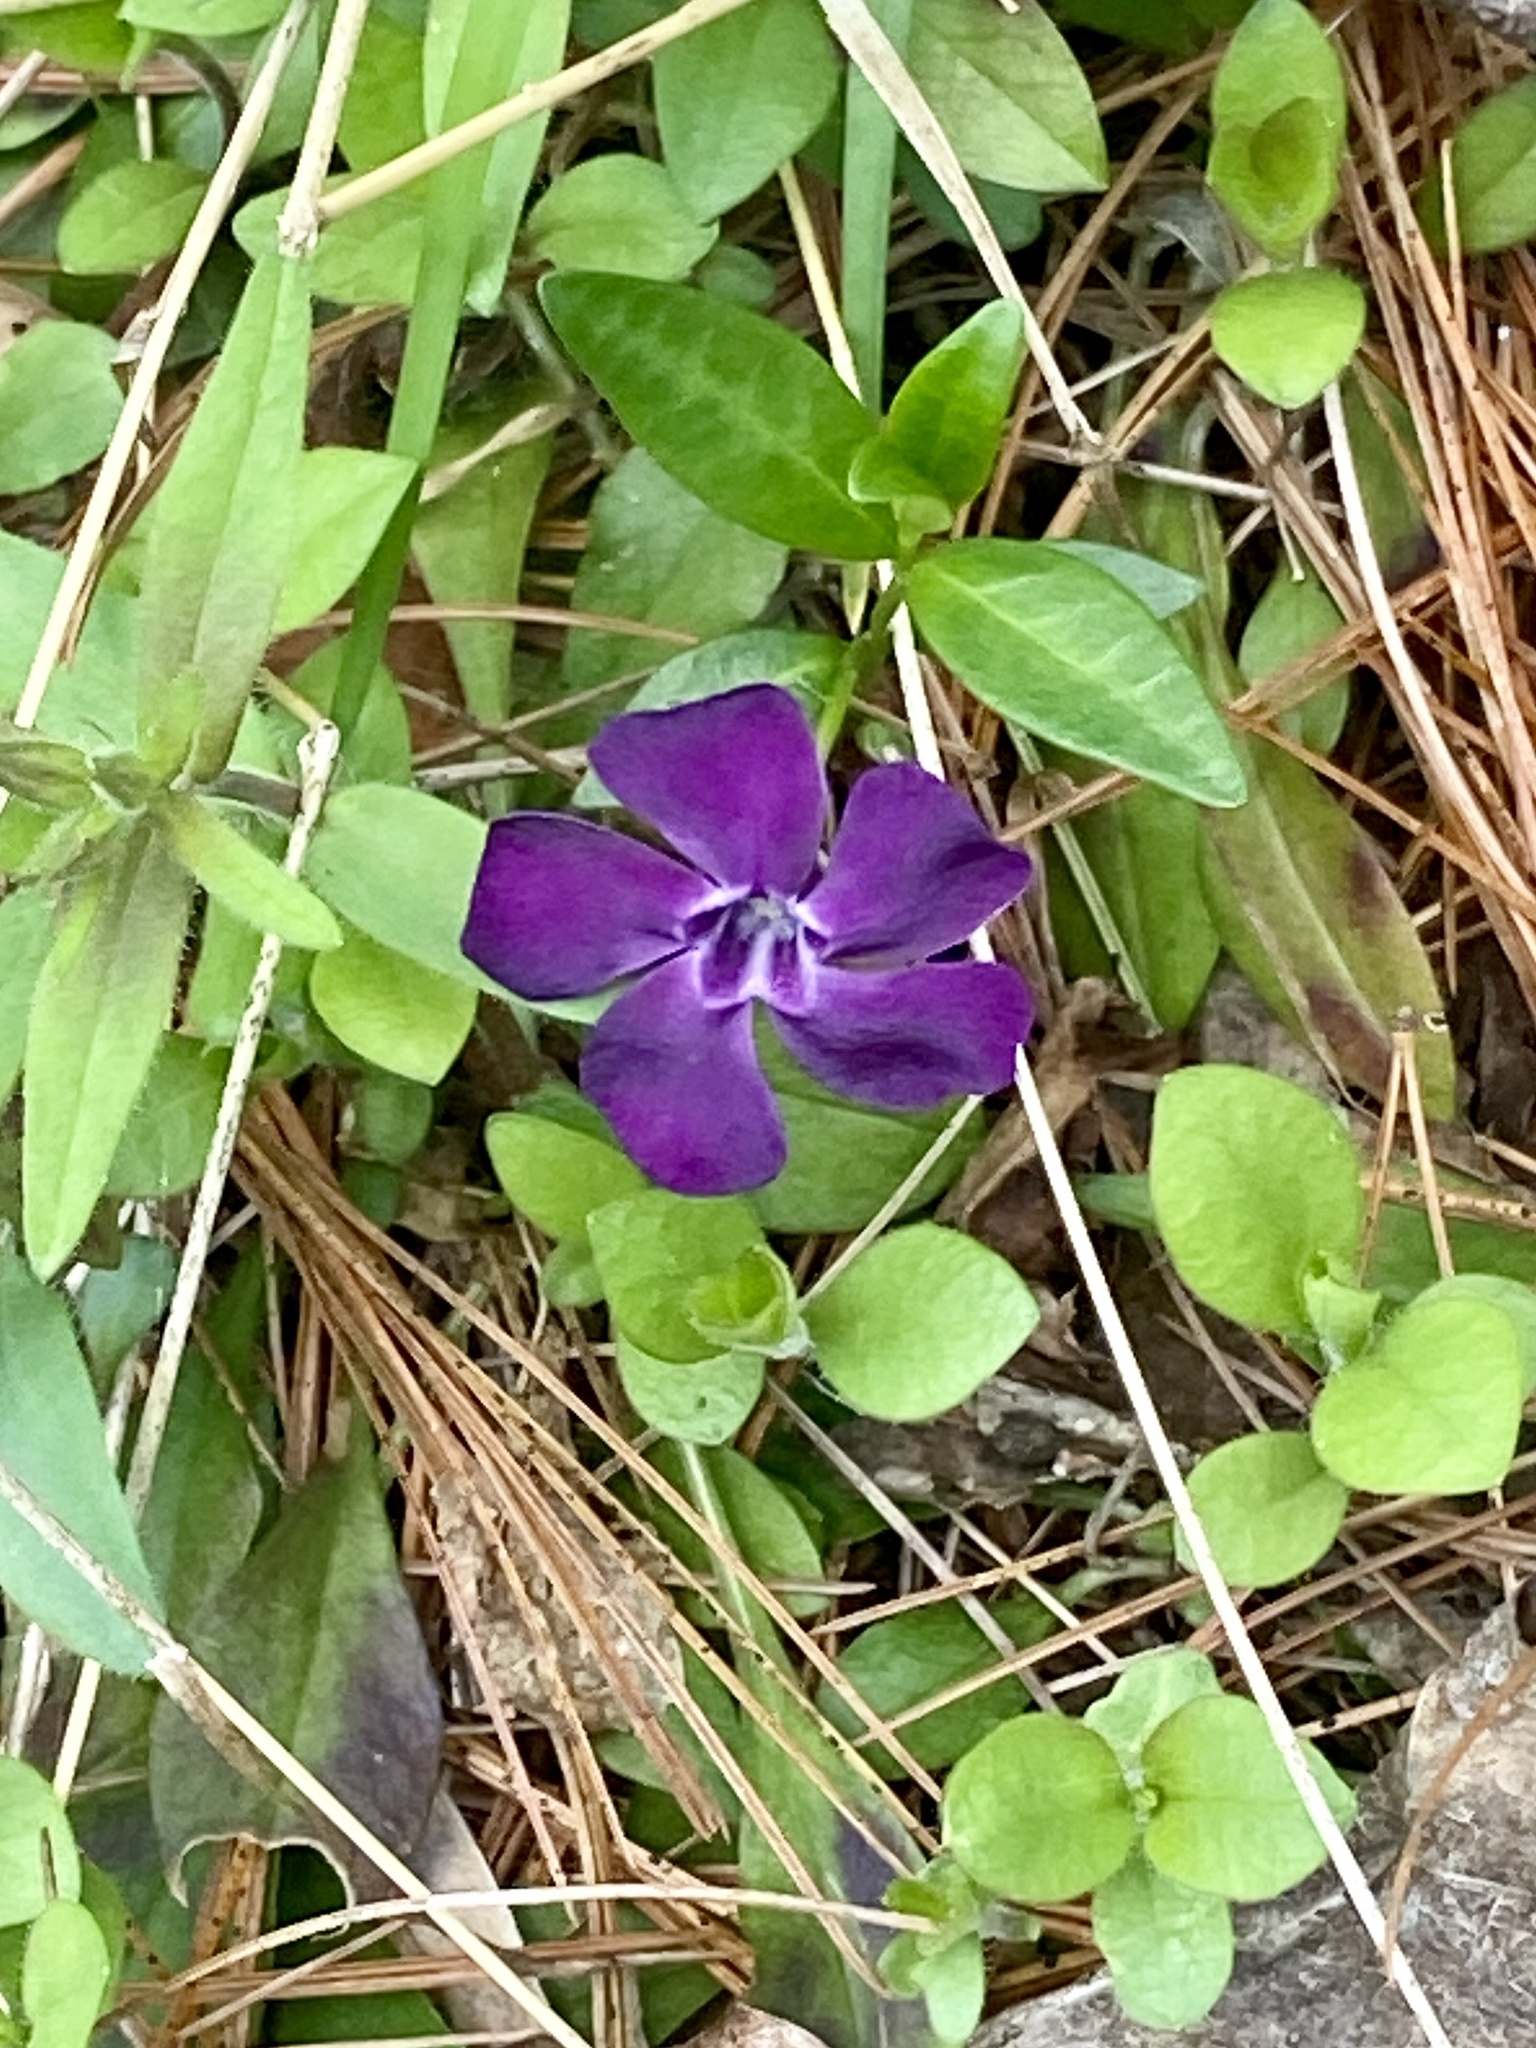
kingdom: Plantae
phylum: Tracheophyta
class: Magnoliopsida
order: Gentianales
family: Apocynaceae
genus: Vinca
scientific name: Vinca minor
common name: Lesser periwinkle
